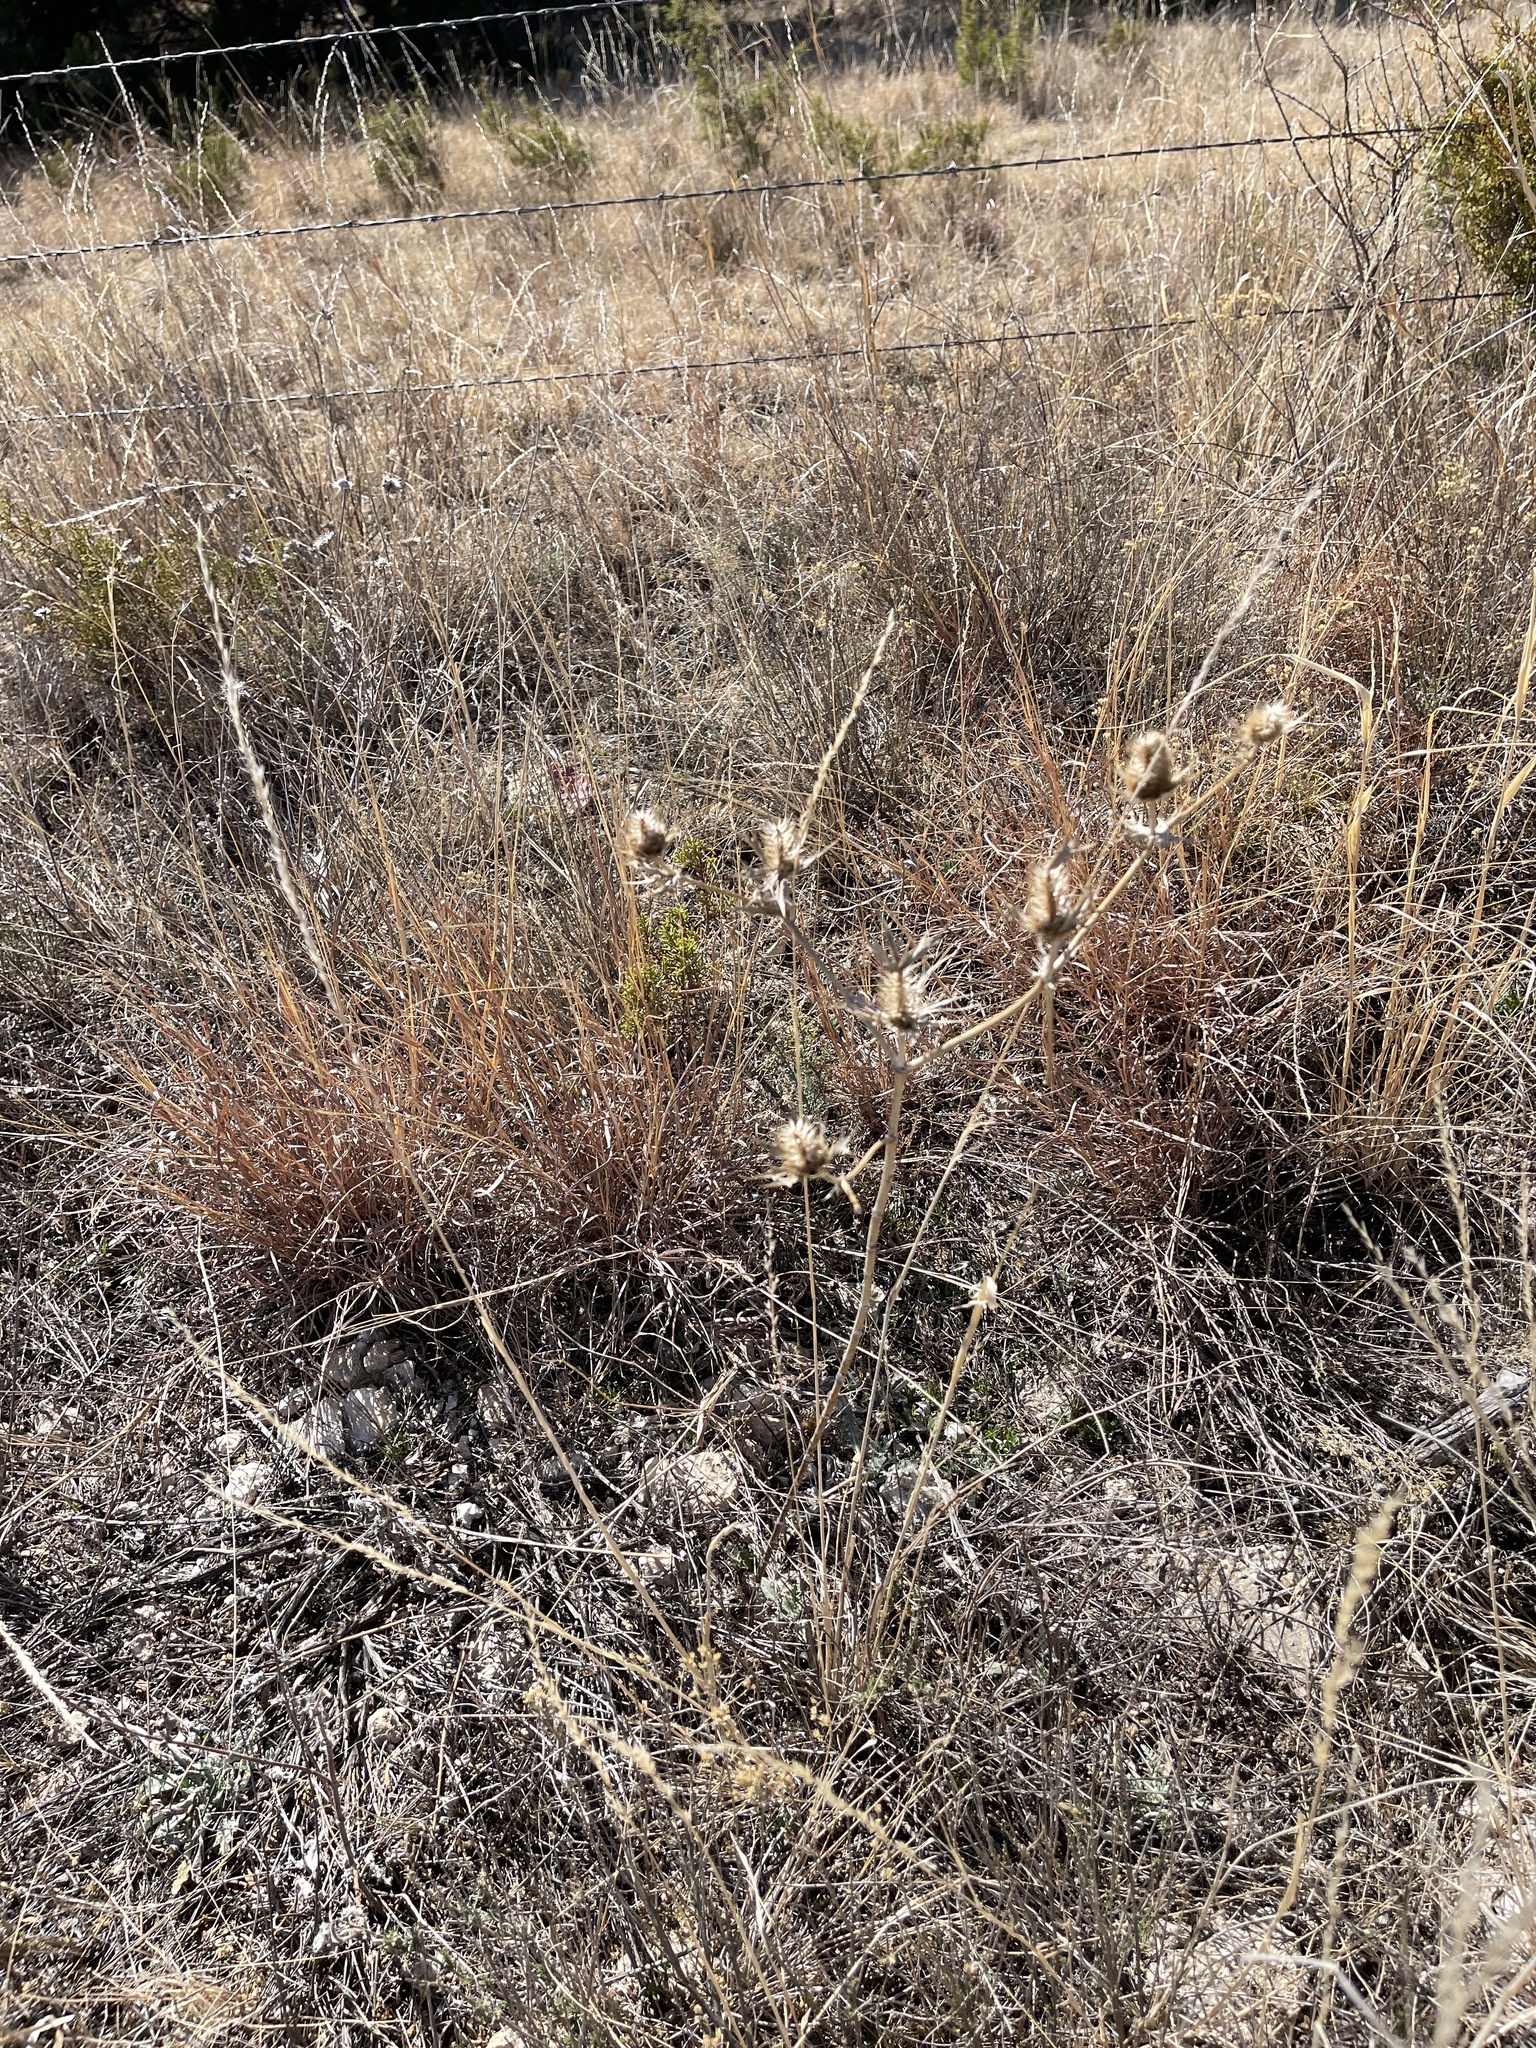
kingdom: Plantae
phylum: Tracheophyta
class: Magnoliopsida
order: Apiales
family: Apiaceae
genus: Eryngium
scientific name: Eryngium leavenworthii
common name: Leavenworth's eryngo
